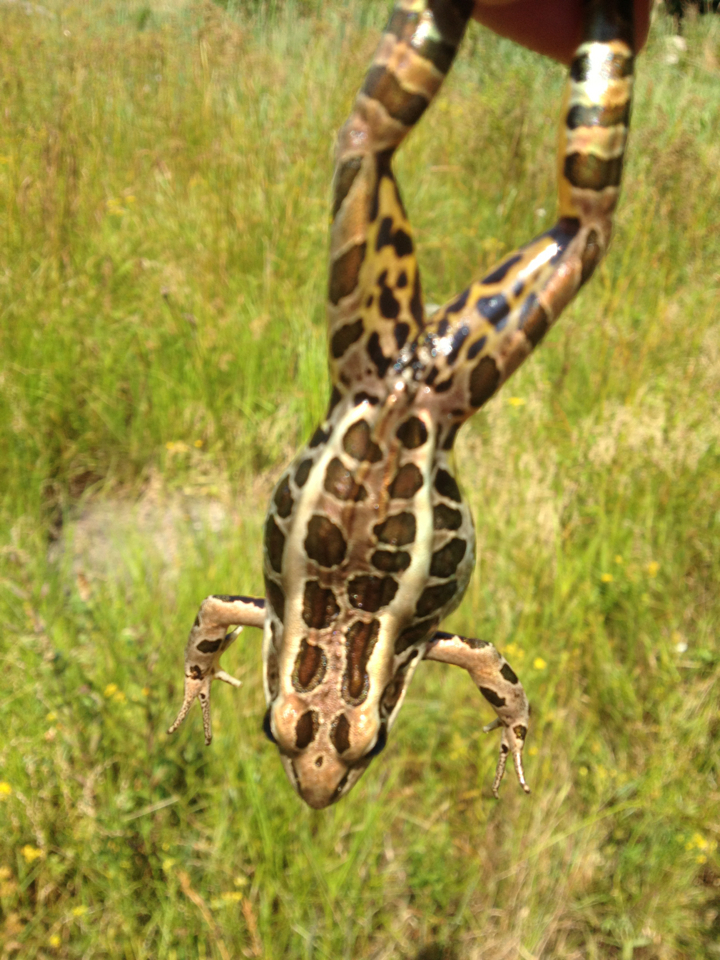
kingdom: Animalia
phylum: Chordata
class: Amphibia
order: Anura
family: Ranidae
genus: Lithobates
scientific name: Lithobates palustris
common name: Pickerel frog
